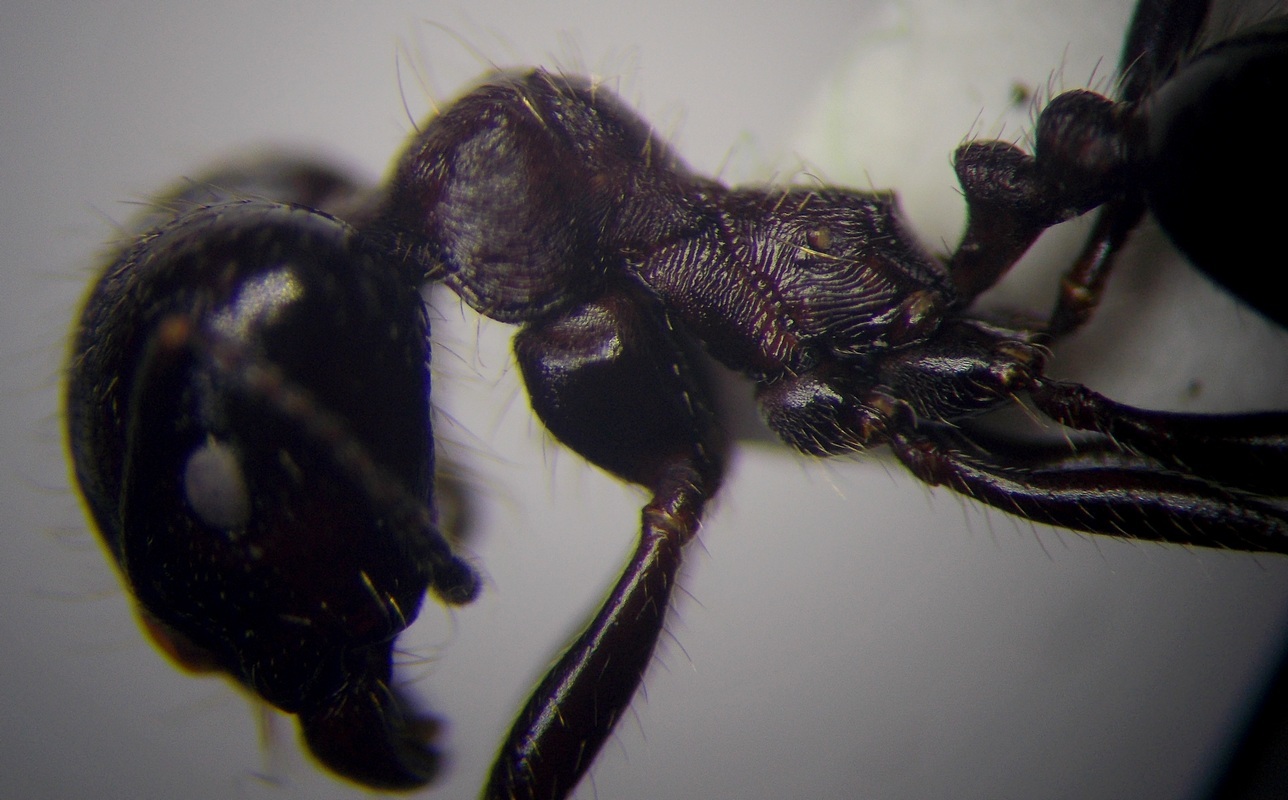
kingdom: Animalia
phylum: Arthropoda
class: Insecta
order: Hymenoptera
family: Formicidae
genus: Messor
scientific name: Messor structor
